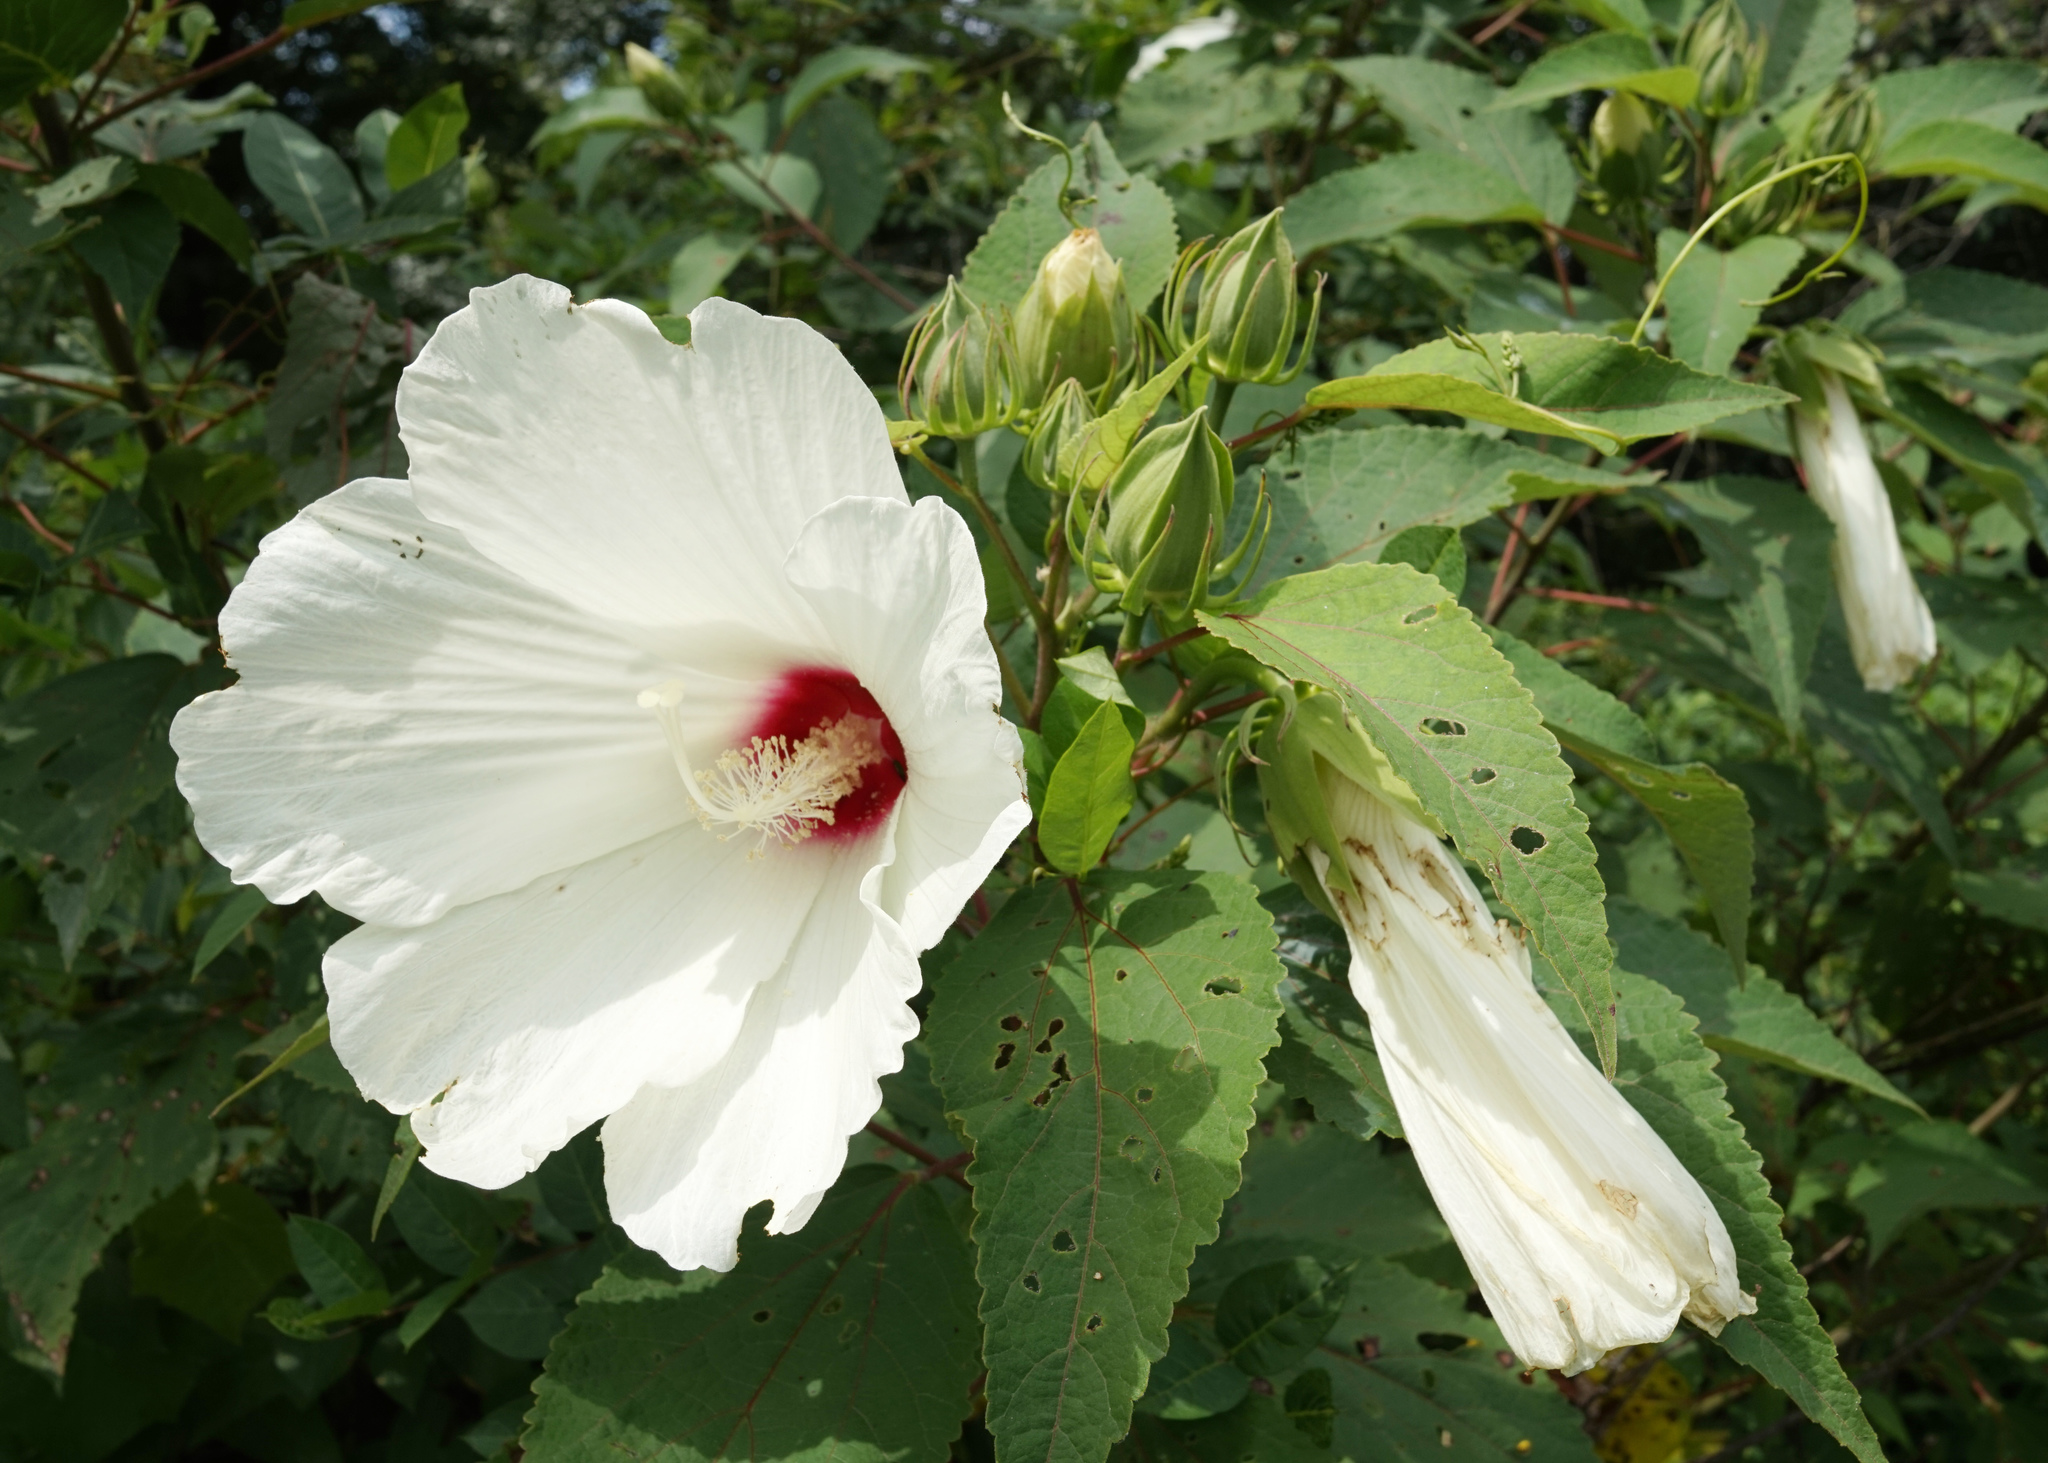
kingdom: Plantae
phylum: Tracheophyta
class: Magnoliopsida
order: Malvales
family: Malvaceae
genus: Hibiscus
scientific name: Hibiscus moscheutos
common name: Common rose-mallow
